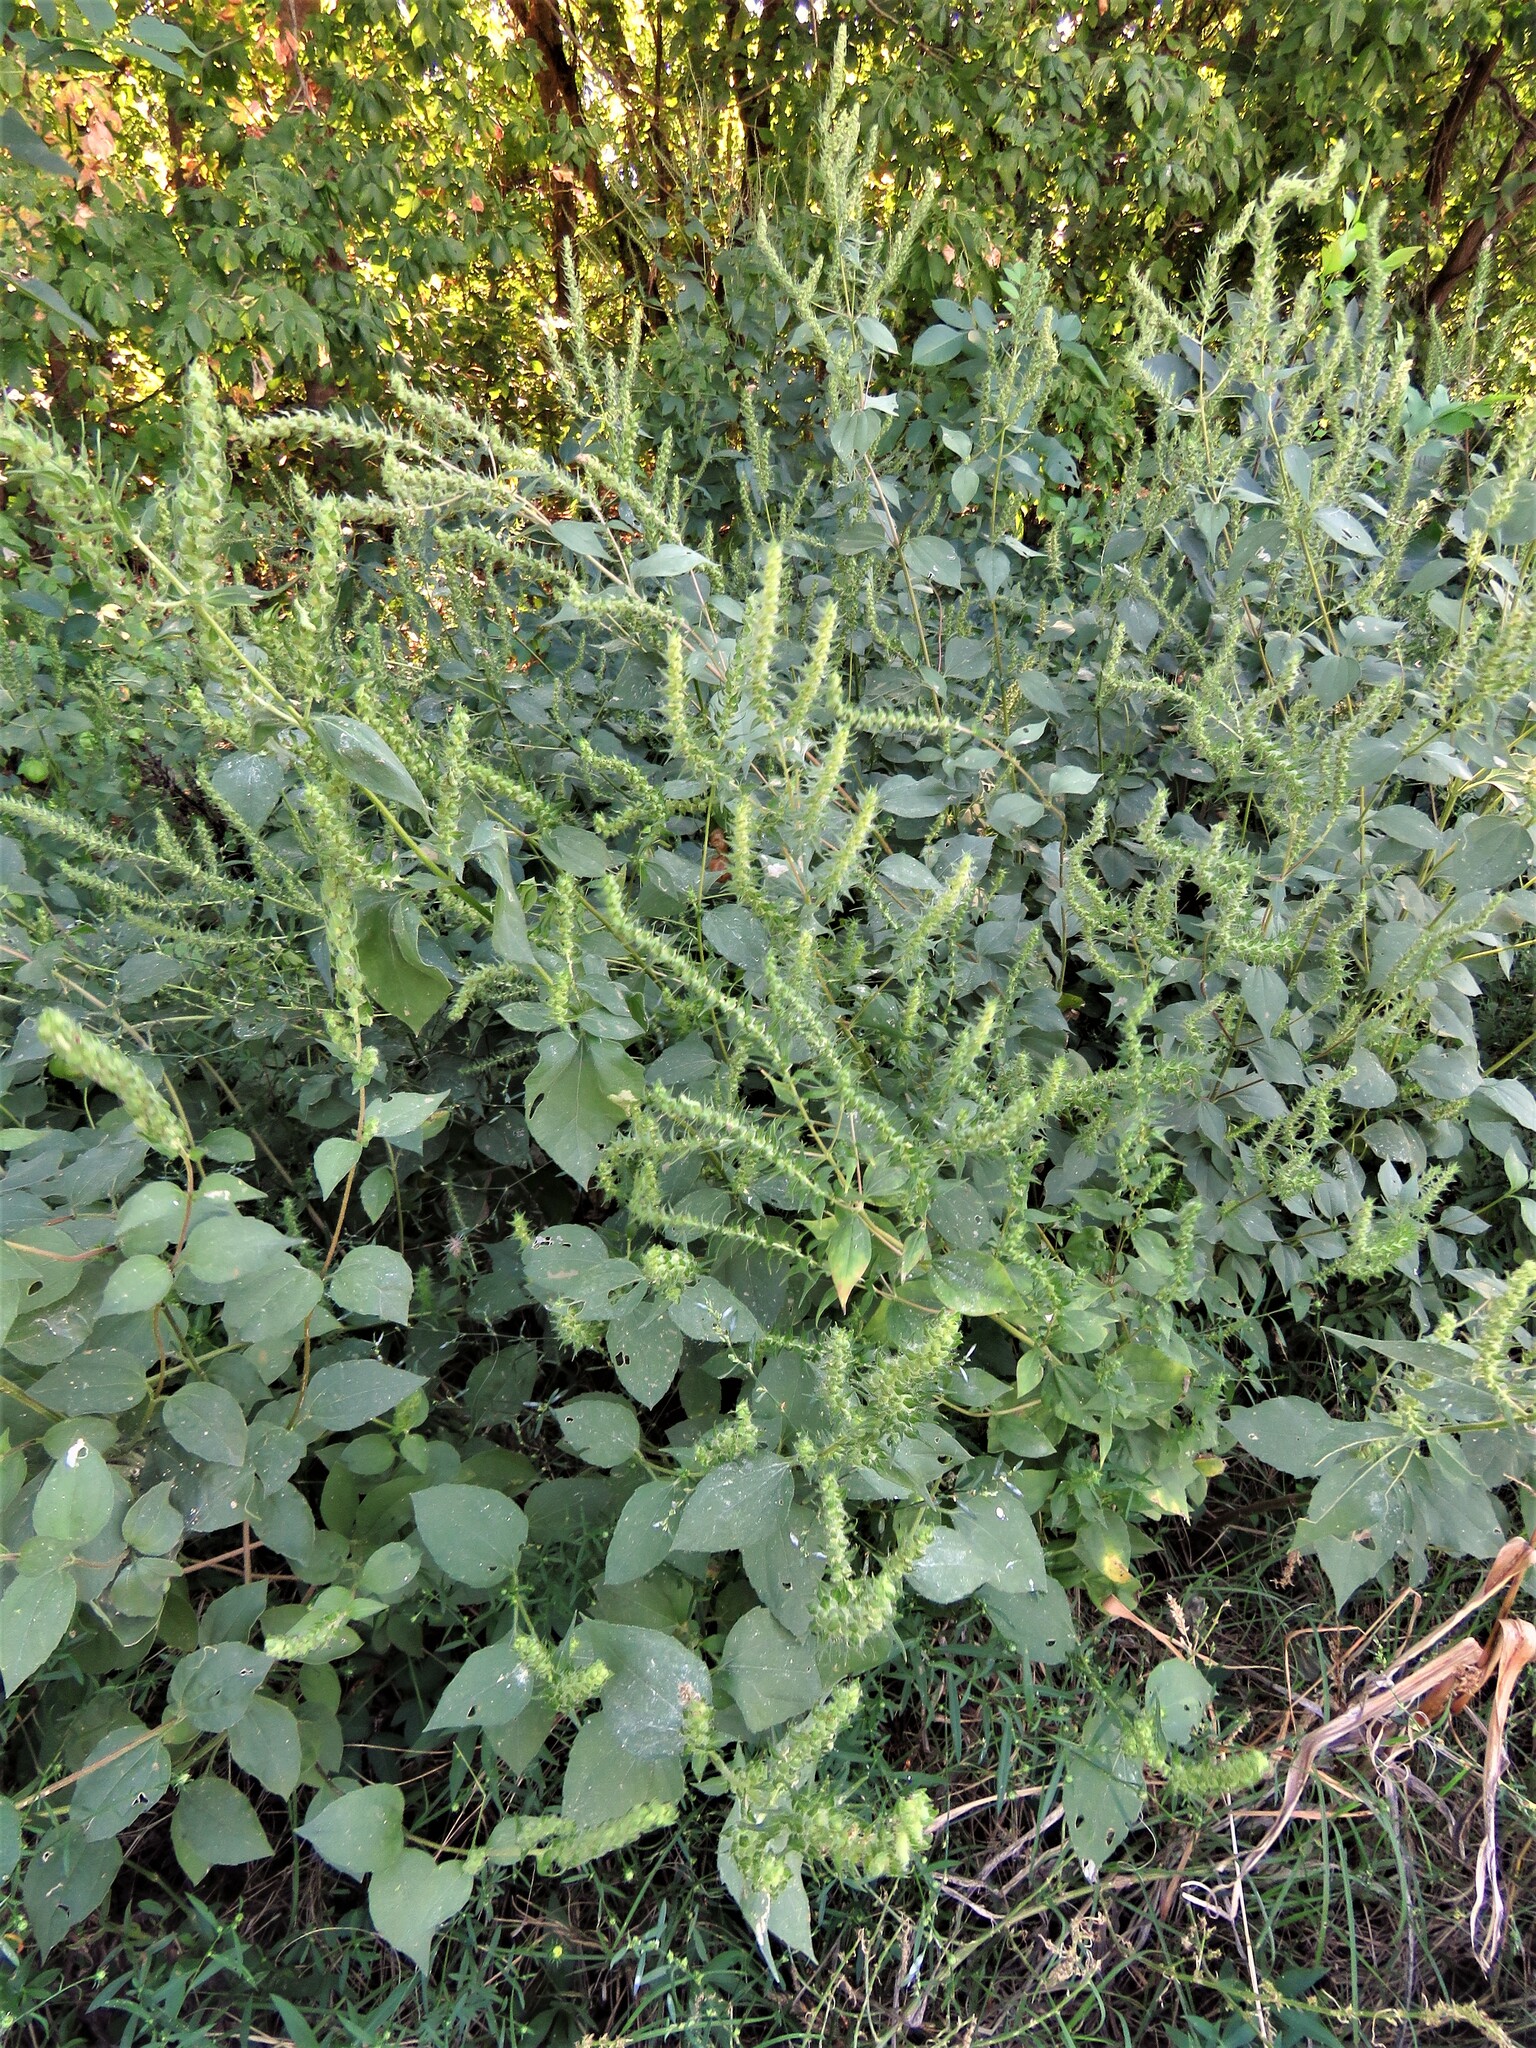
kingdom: Plantae
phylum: Tracheophyta
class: Magnoliopsida
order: Asterales
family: Asteraceae
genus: Iva
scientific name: Iva annua
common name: Marsh-elder
